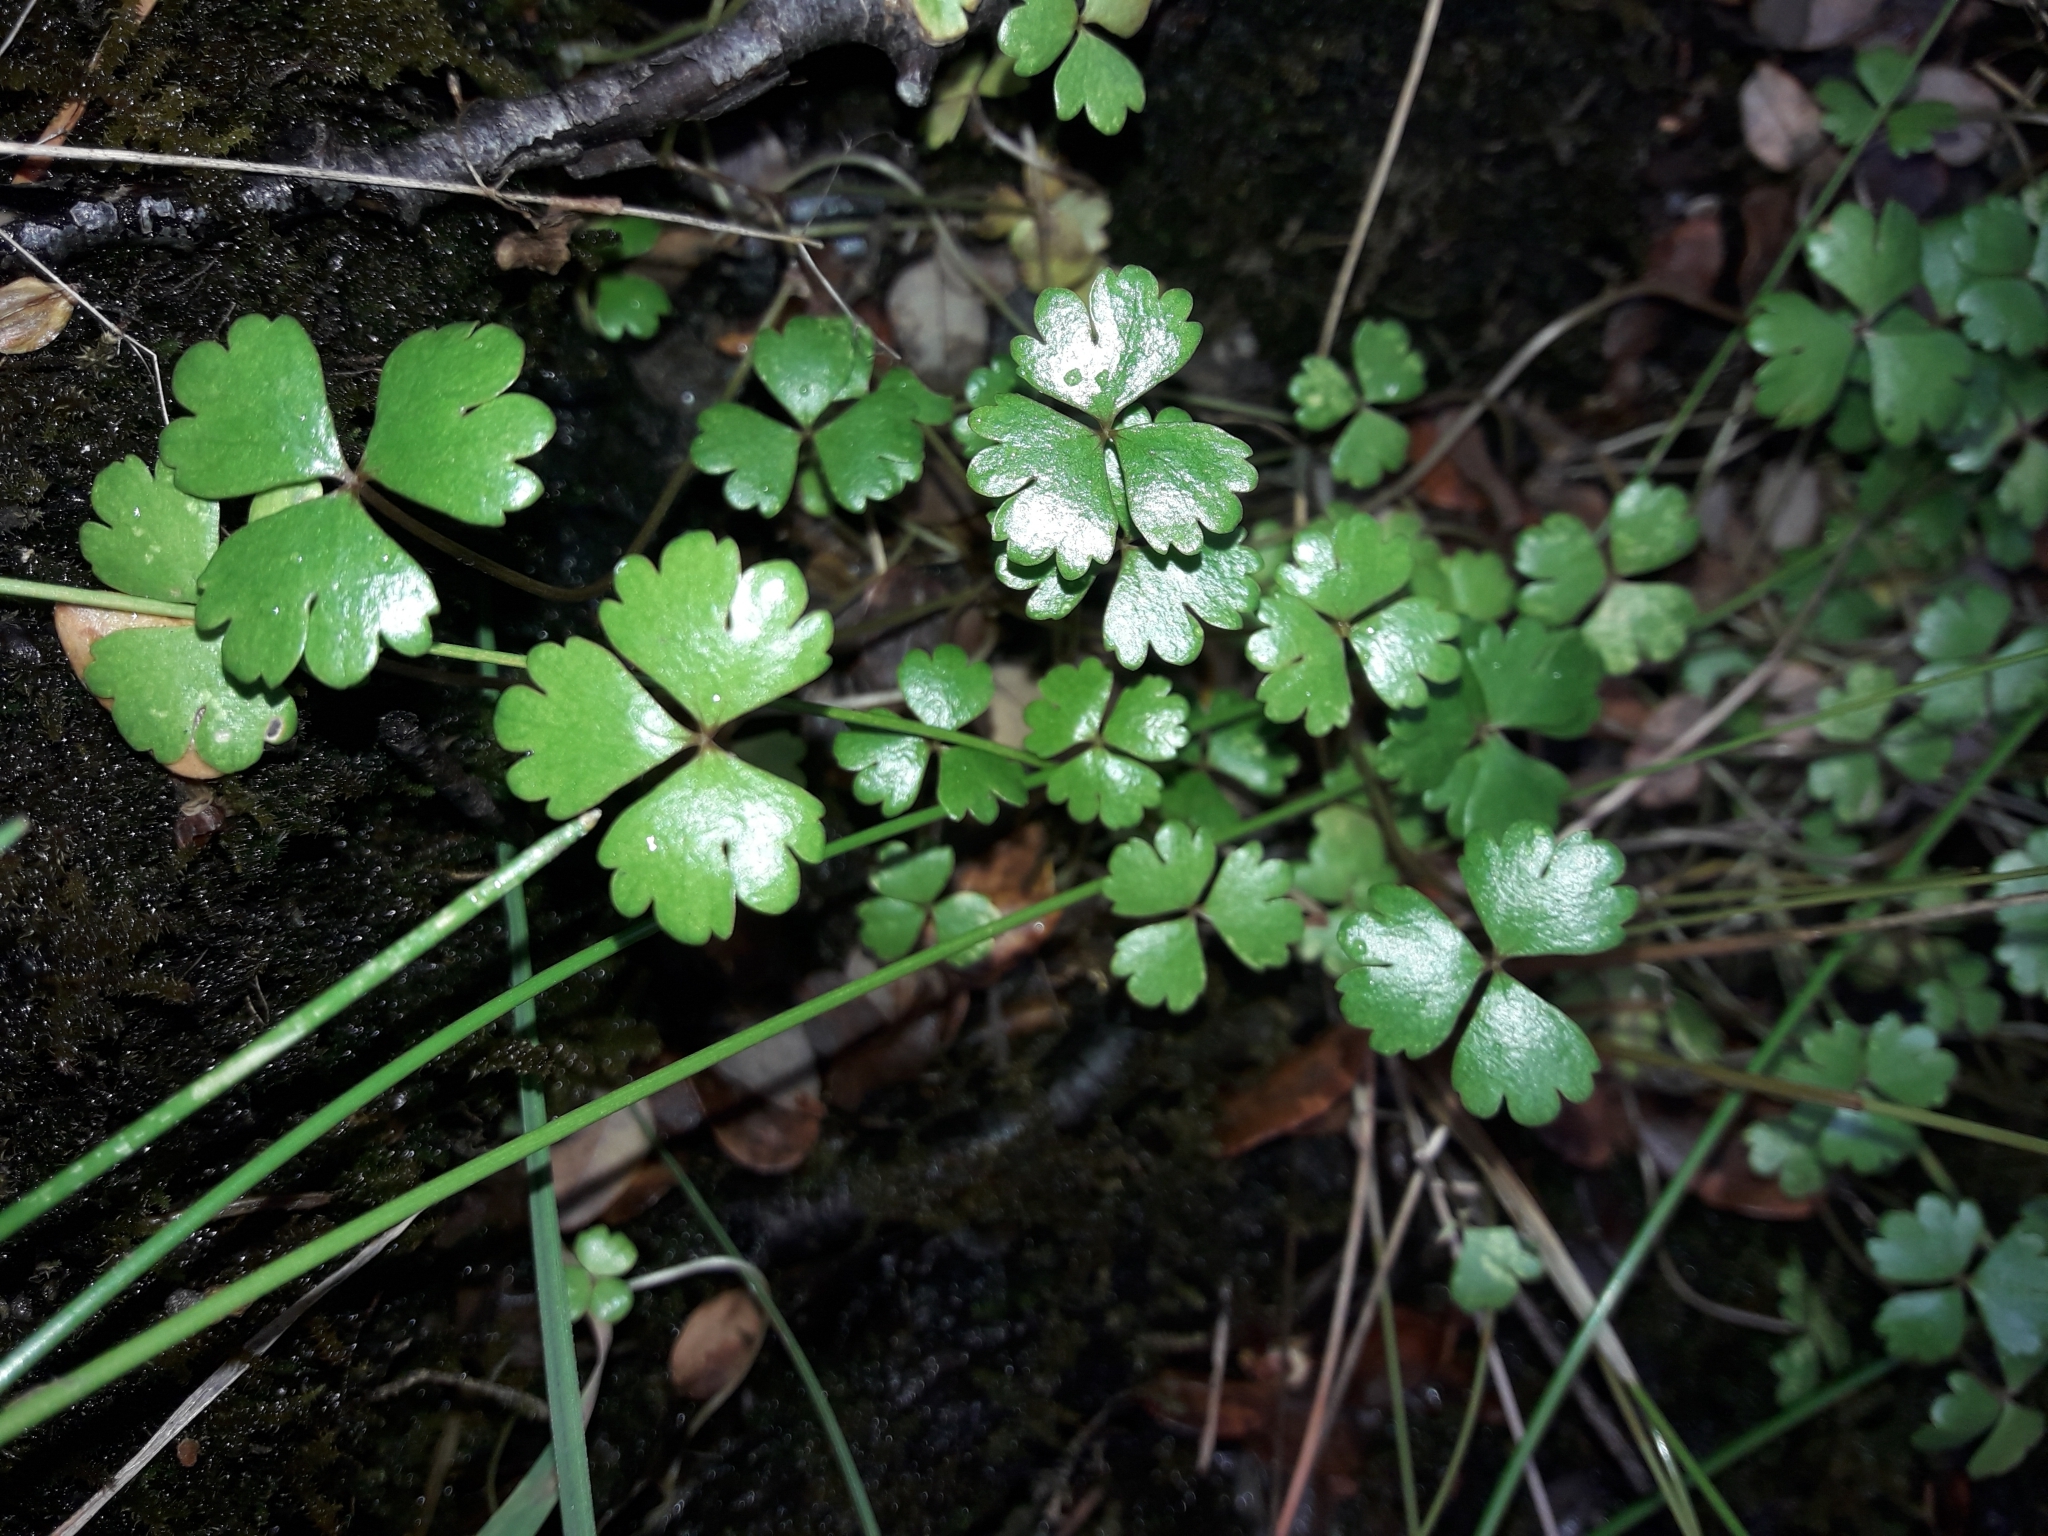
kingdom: Plantae
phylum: Tracheophyta
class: Magnoliopsida
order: Apiales
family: Araliaceae
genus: Hydrocotyle
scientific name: Hydrocotyle sulcata
